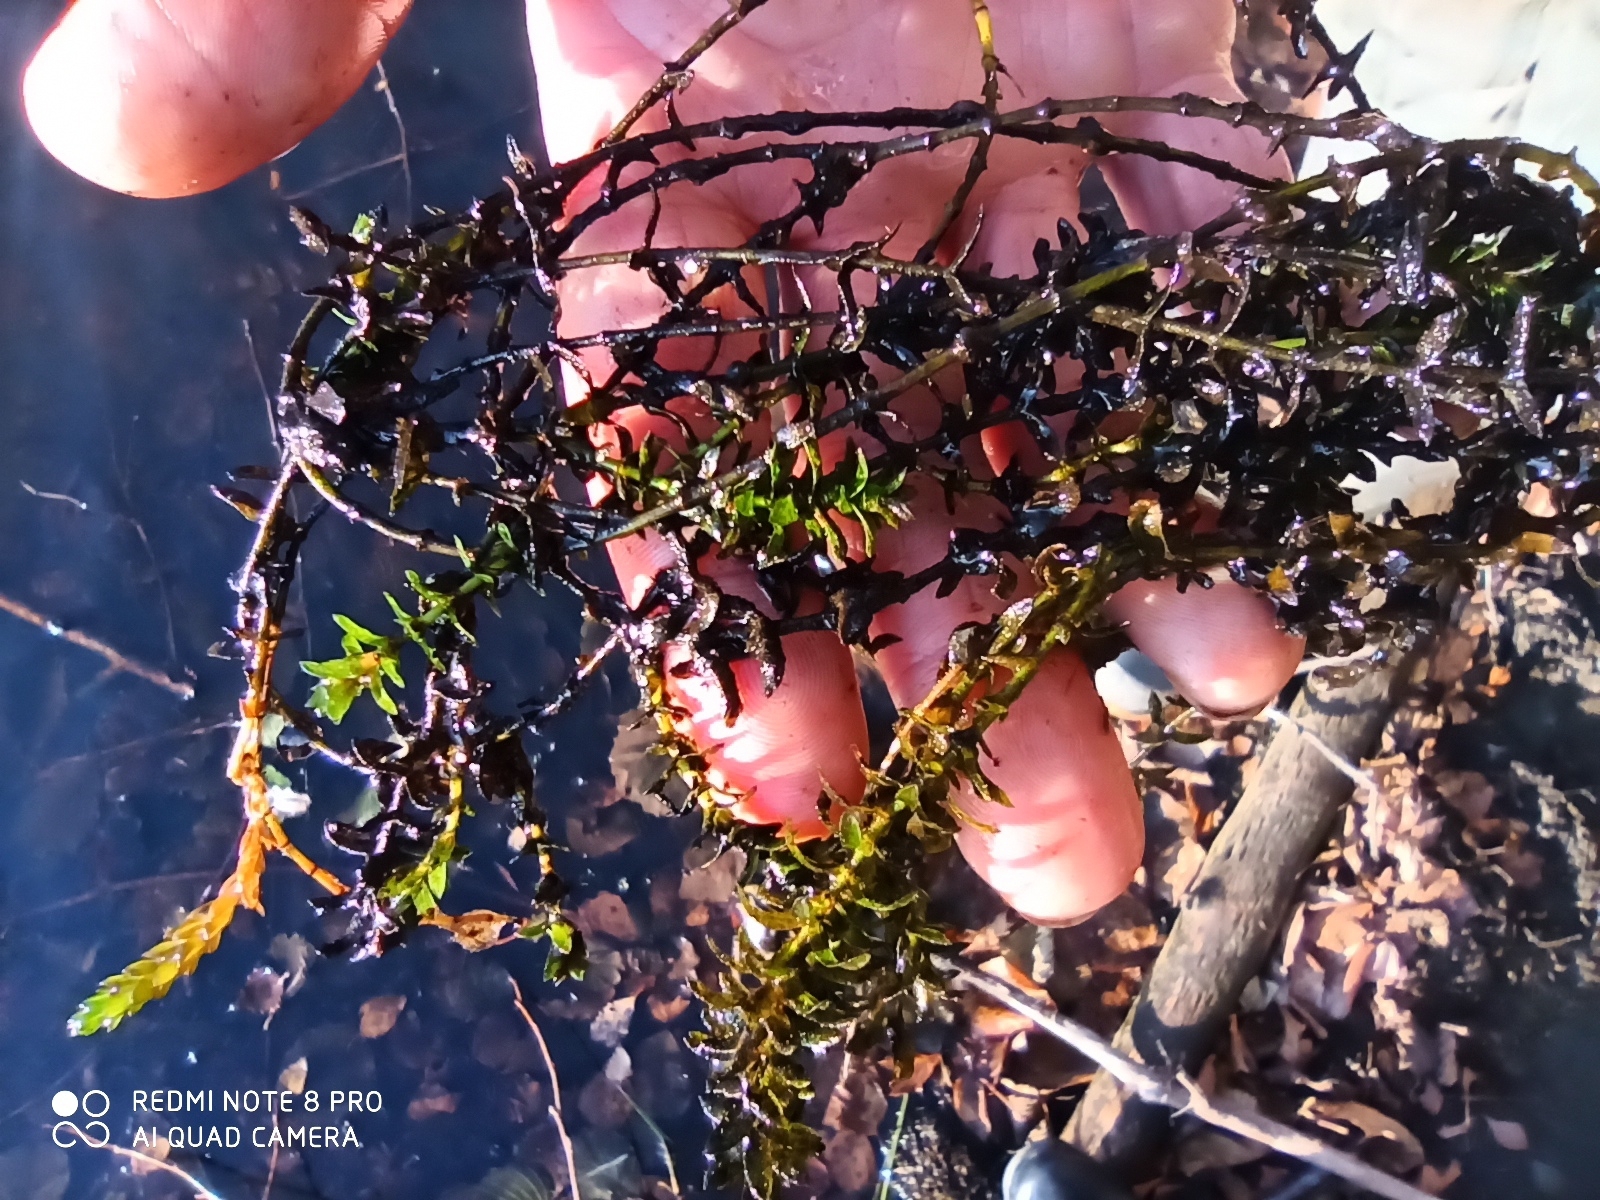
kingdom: Plantae
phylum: Tracheophyta
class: Liliopsida
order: Alismatales
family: Hydrocharitaceae
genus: Elodea
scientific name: Elodea canadensis
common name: Canadian waterweed
